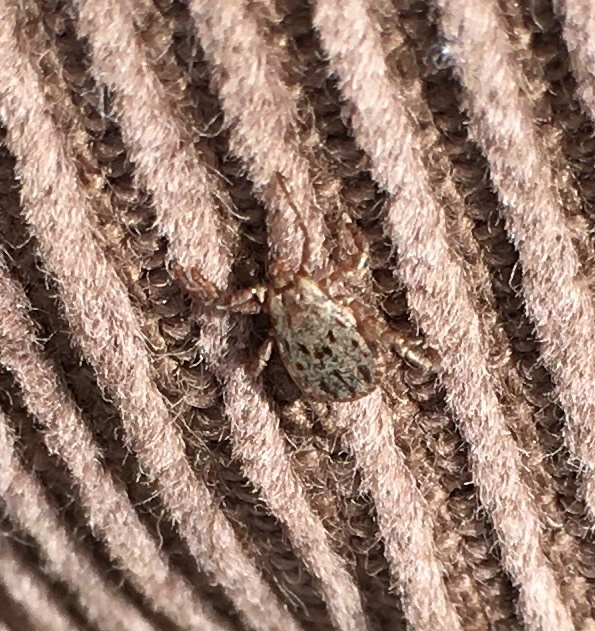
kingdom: Animalia
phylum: Arthropoda
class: Arachnida
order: Ixodida
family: Ixodidae
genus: Dermacentor
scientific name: Dermacentor occidentalis
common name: Net tick
